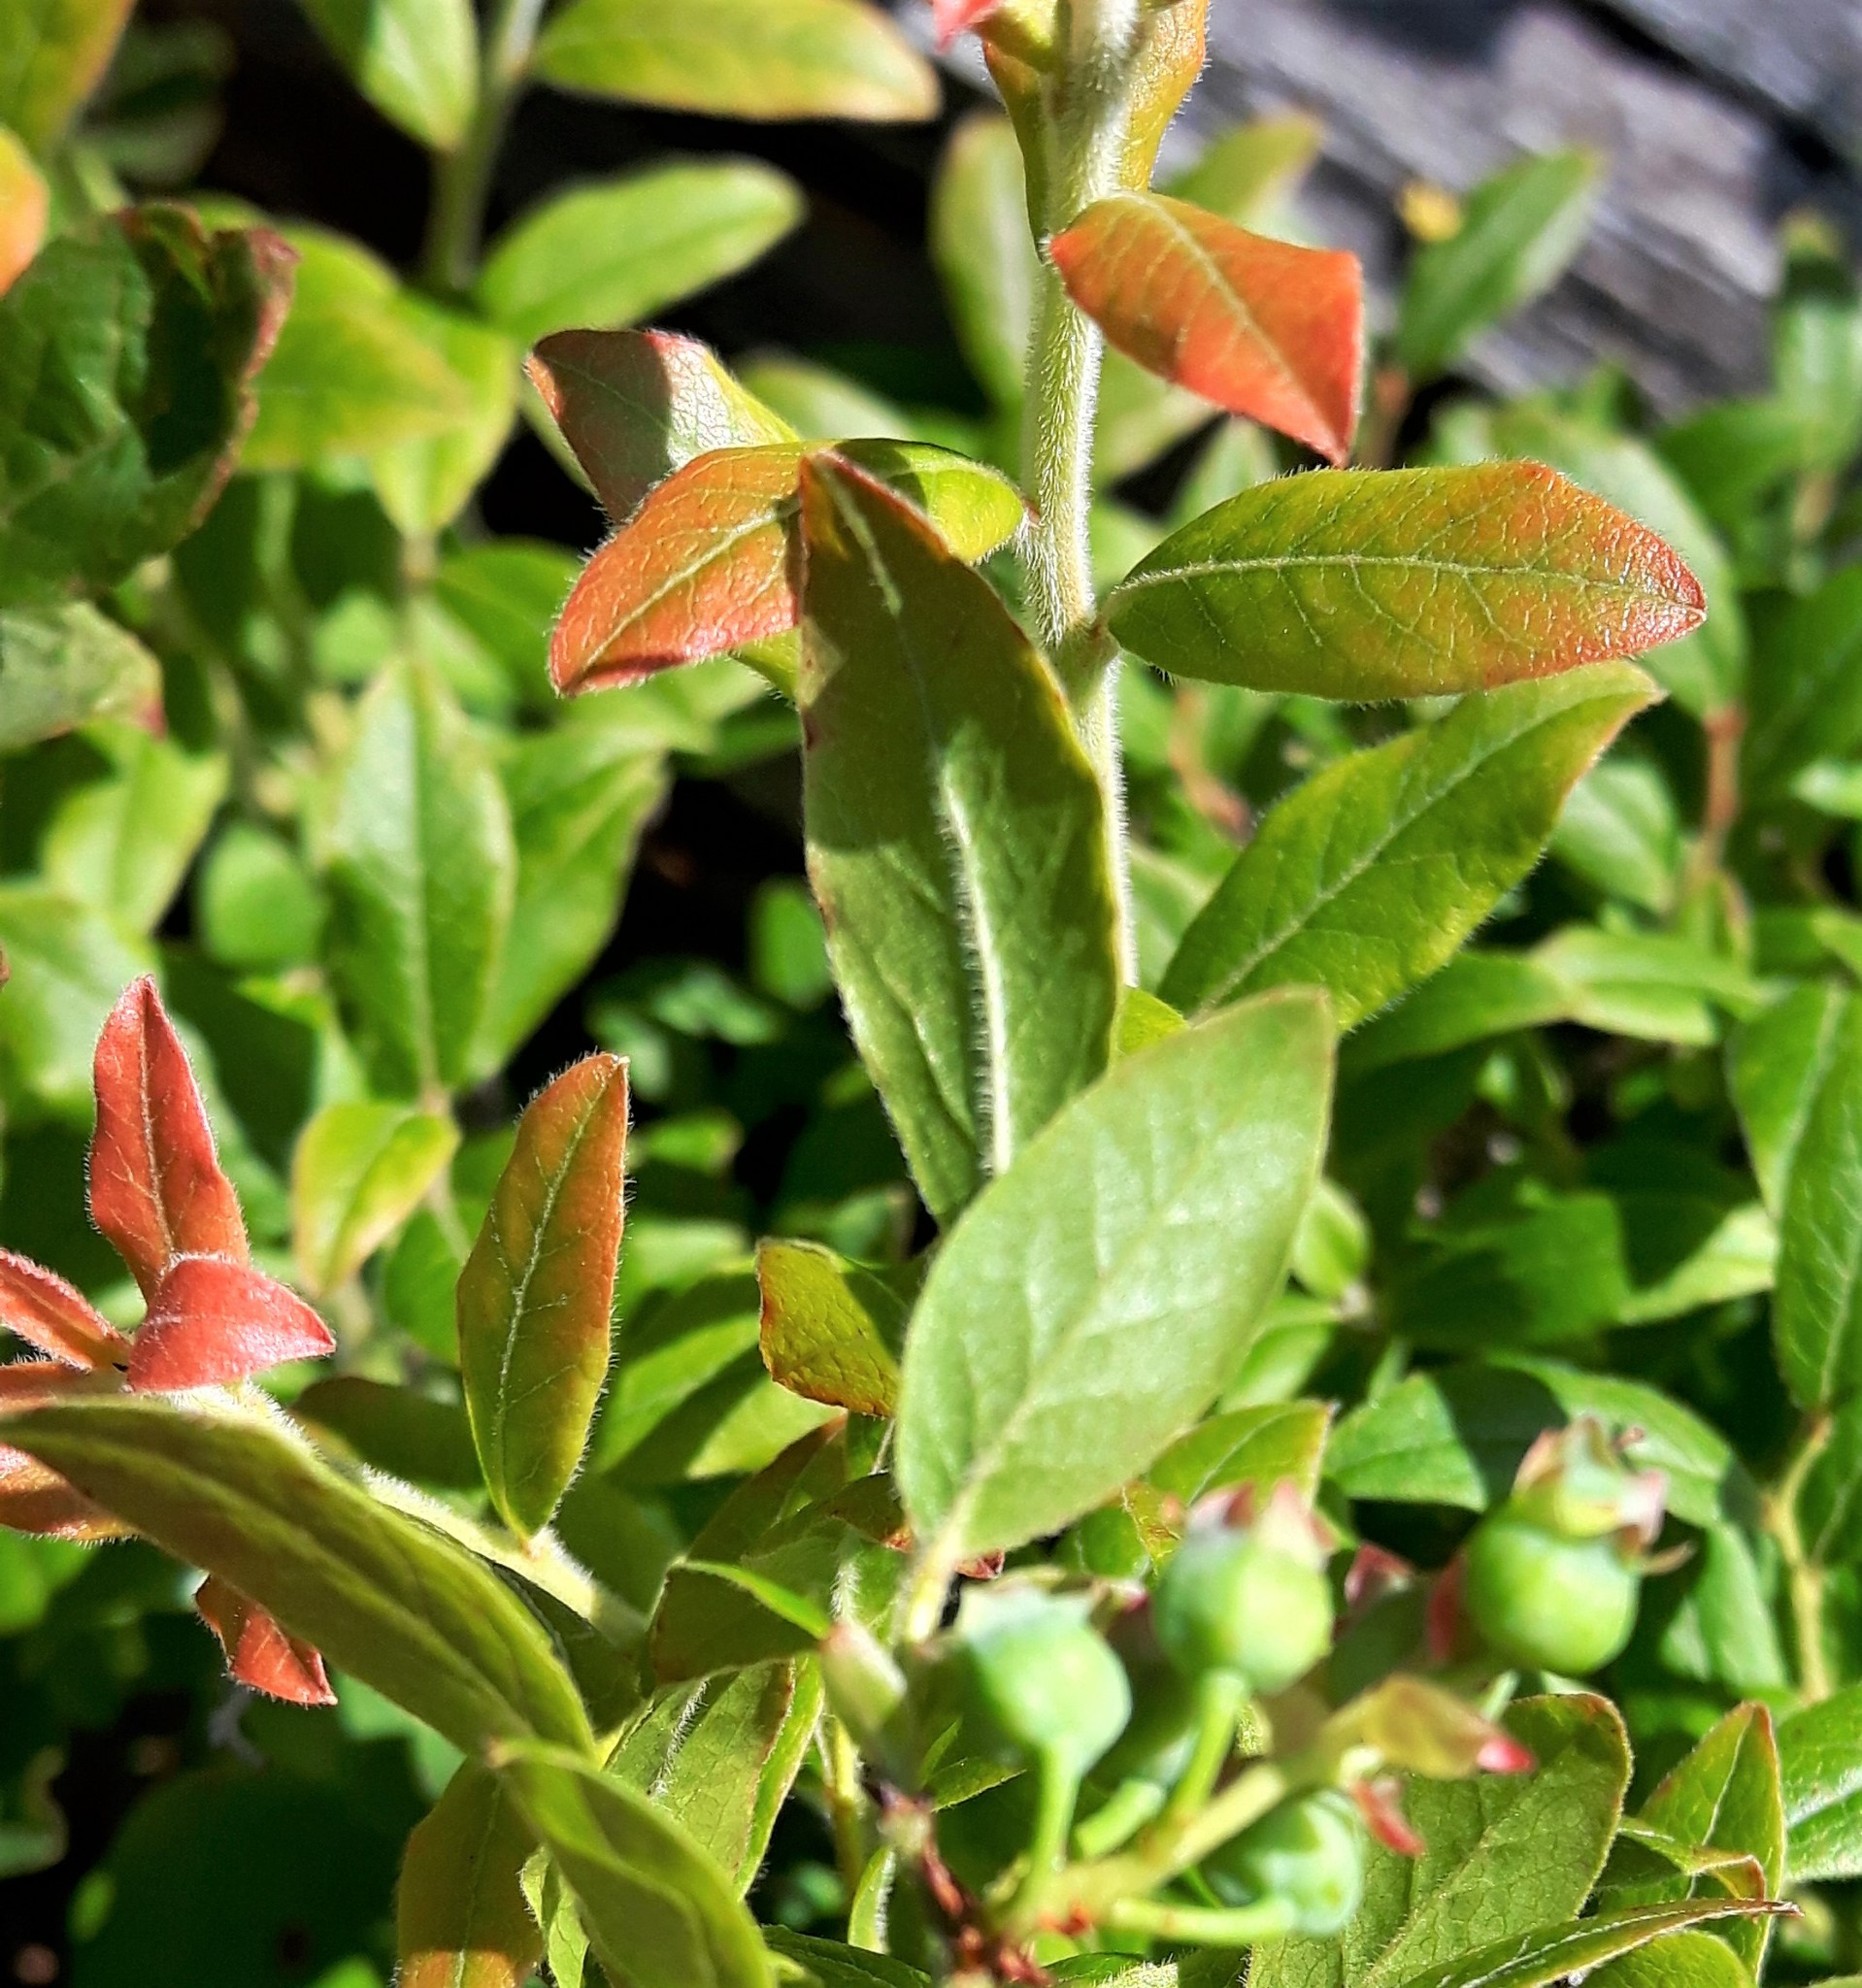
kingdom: Plantae
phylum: Tracheophyta
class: Magnoliopsida
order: Ericales
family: Ericaceae
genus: Vaccinium
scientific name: Vaccinium myrtilloides
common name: Canada blueberry
